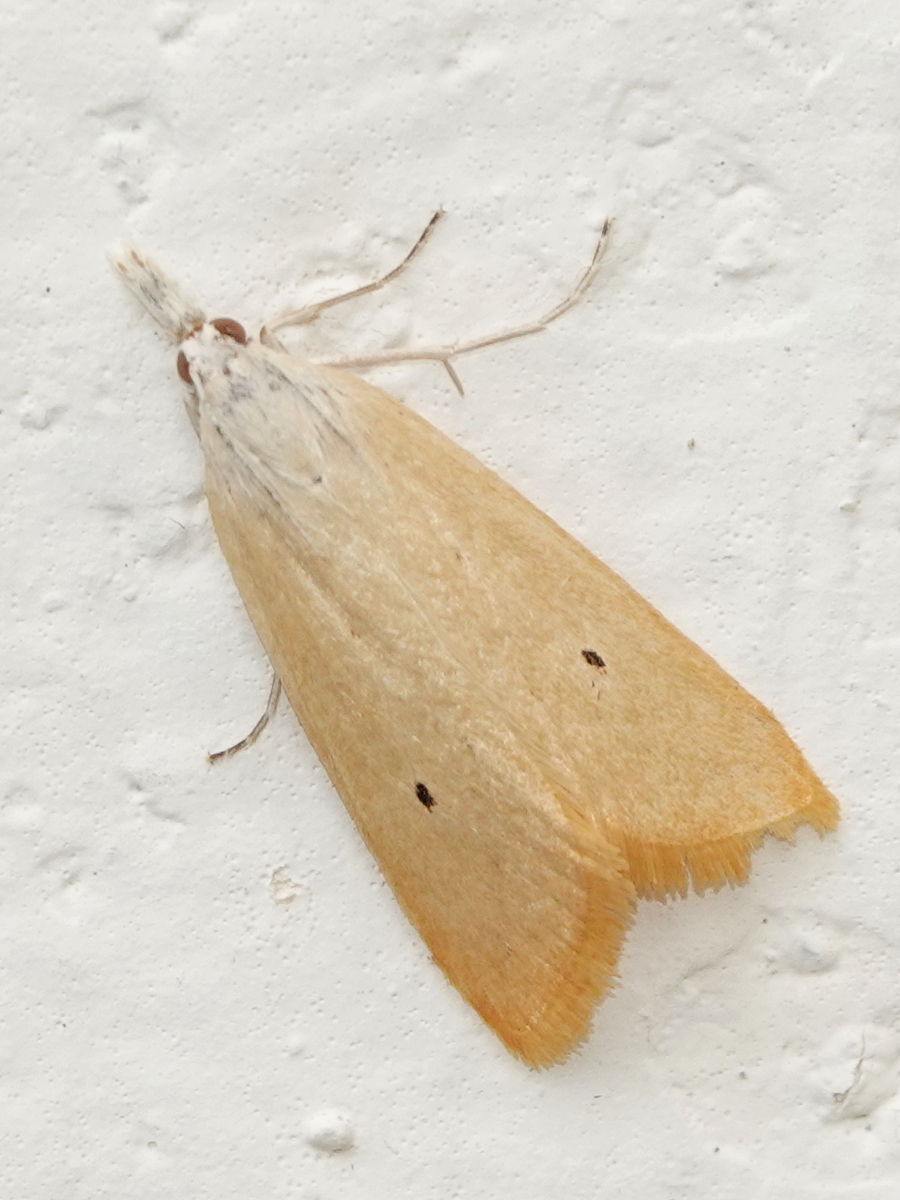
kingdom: Animalia
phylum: Arthropoda
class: Insecta
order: Lepidoptera
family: Crambidae
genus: Scirpophaga
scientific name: Scirpophaga incertulas
